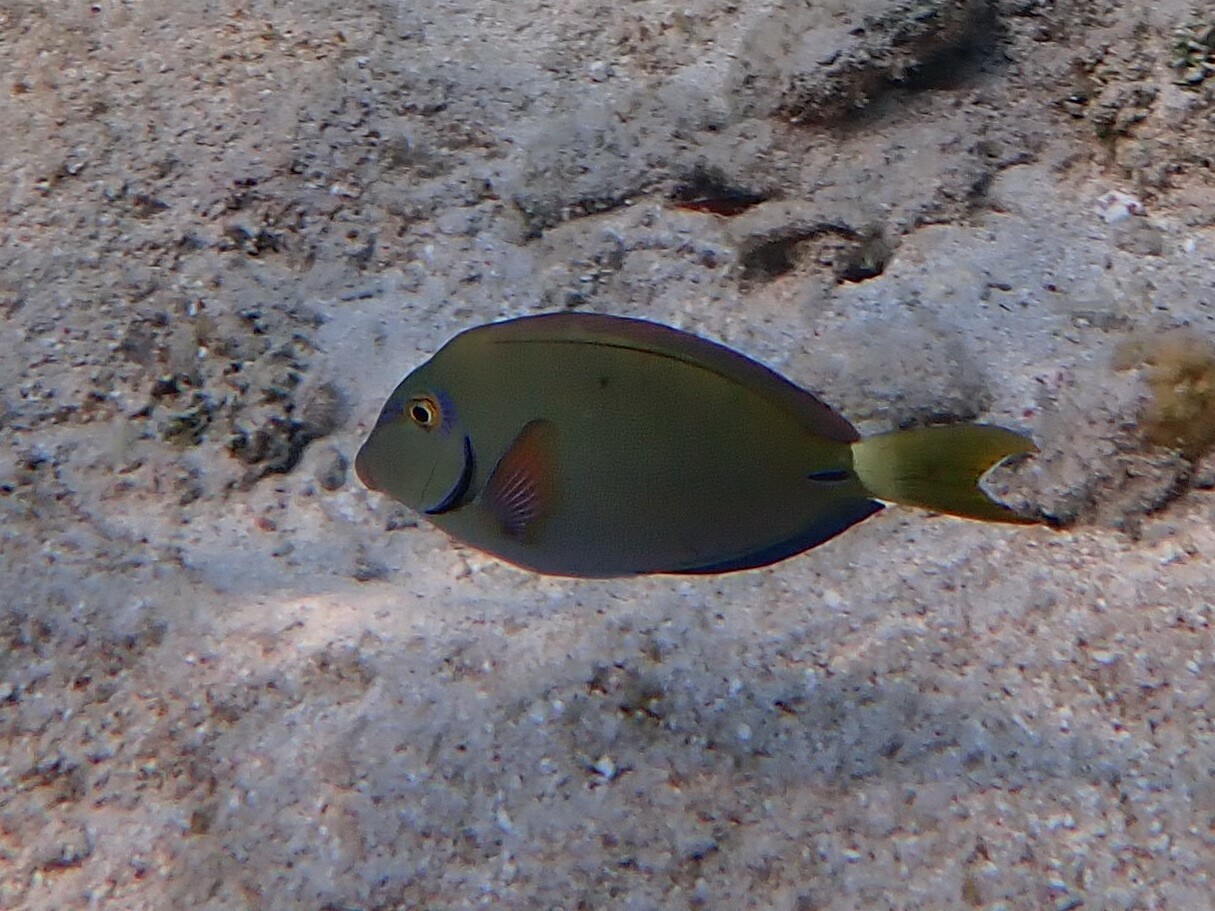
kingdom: Animalia
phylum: Chordata
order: Perciformes
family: Acanthuridae
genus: Acanthurus
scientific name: Acanthurus bahianus
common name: Ocean surgeon
